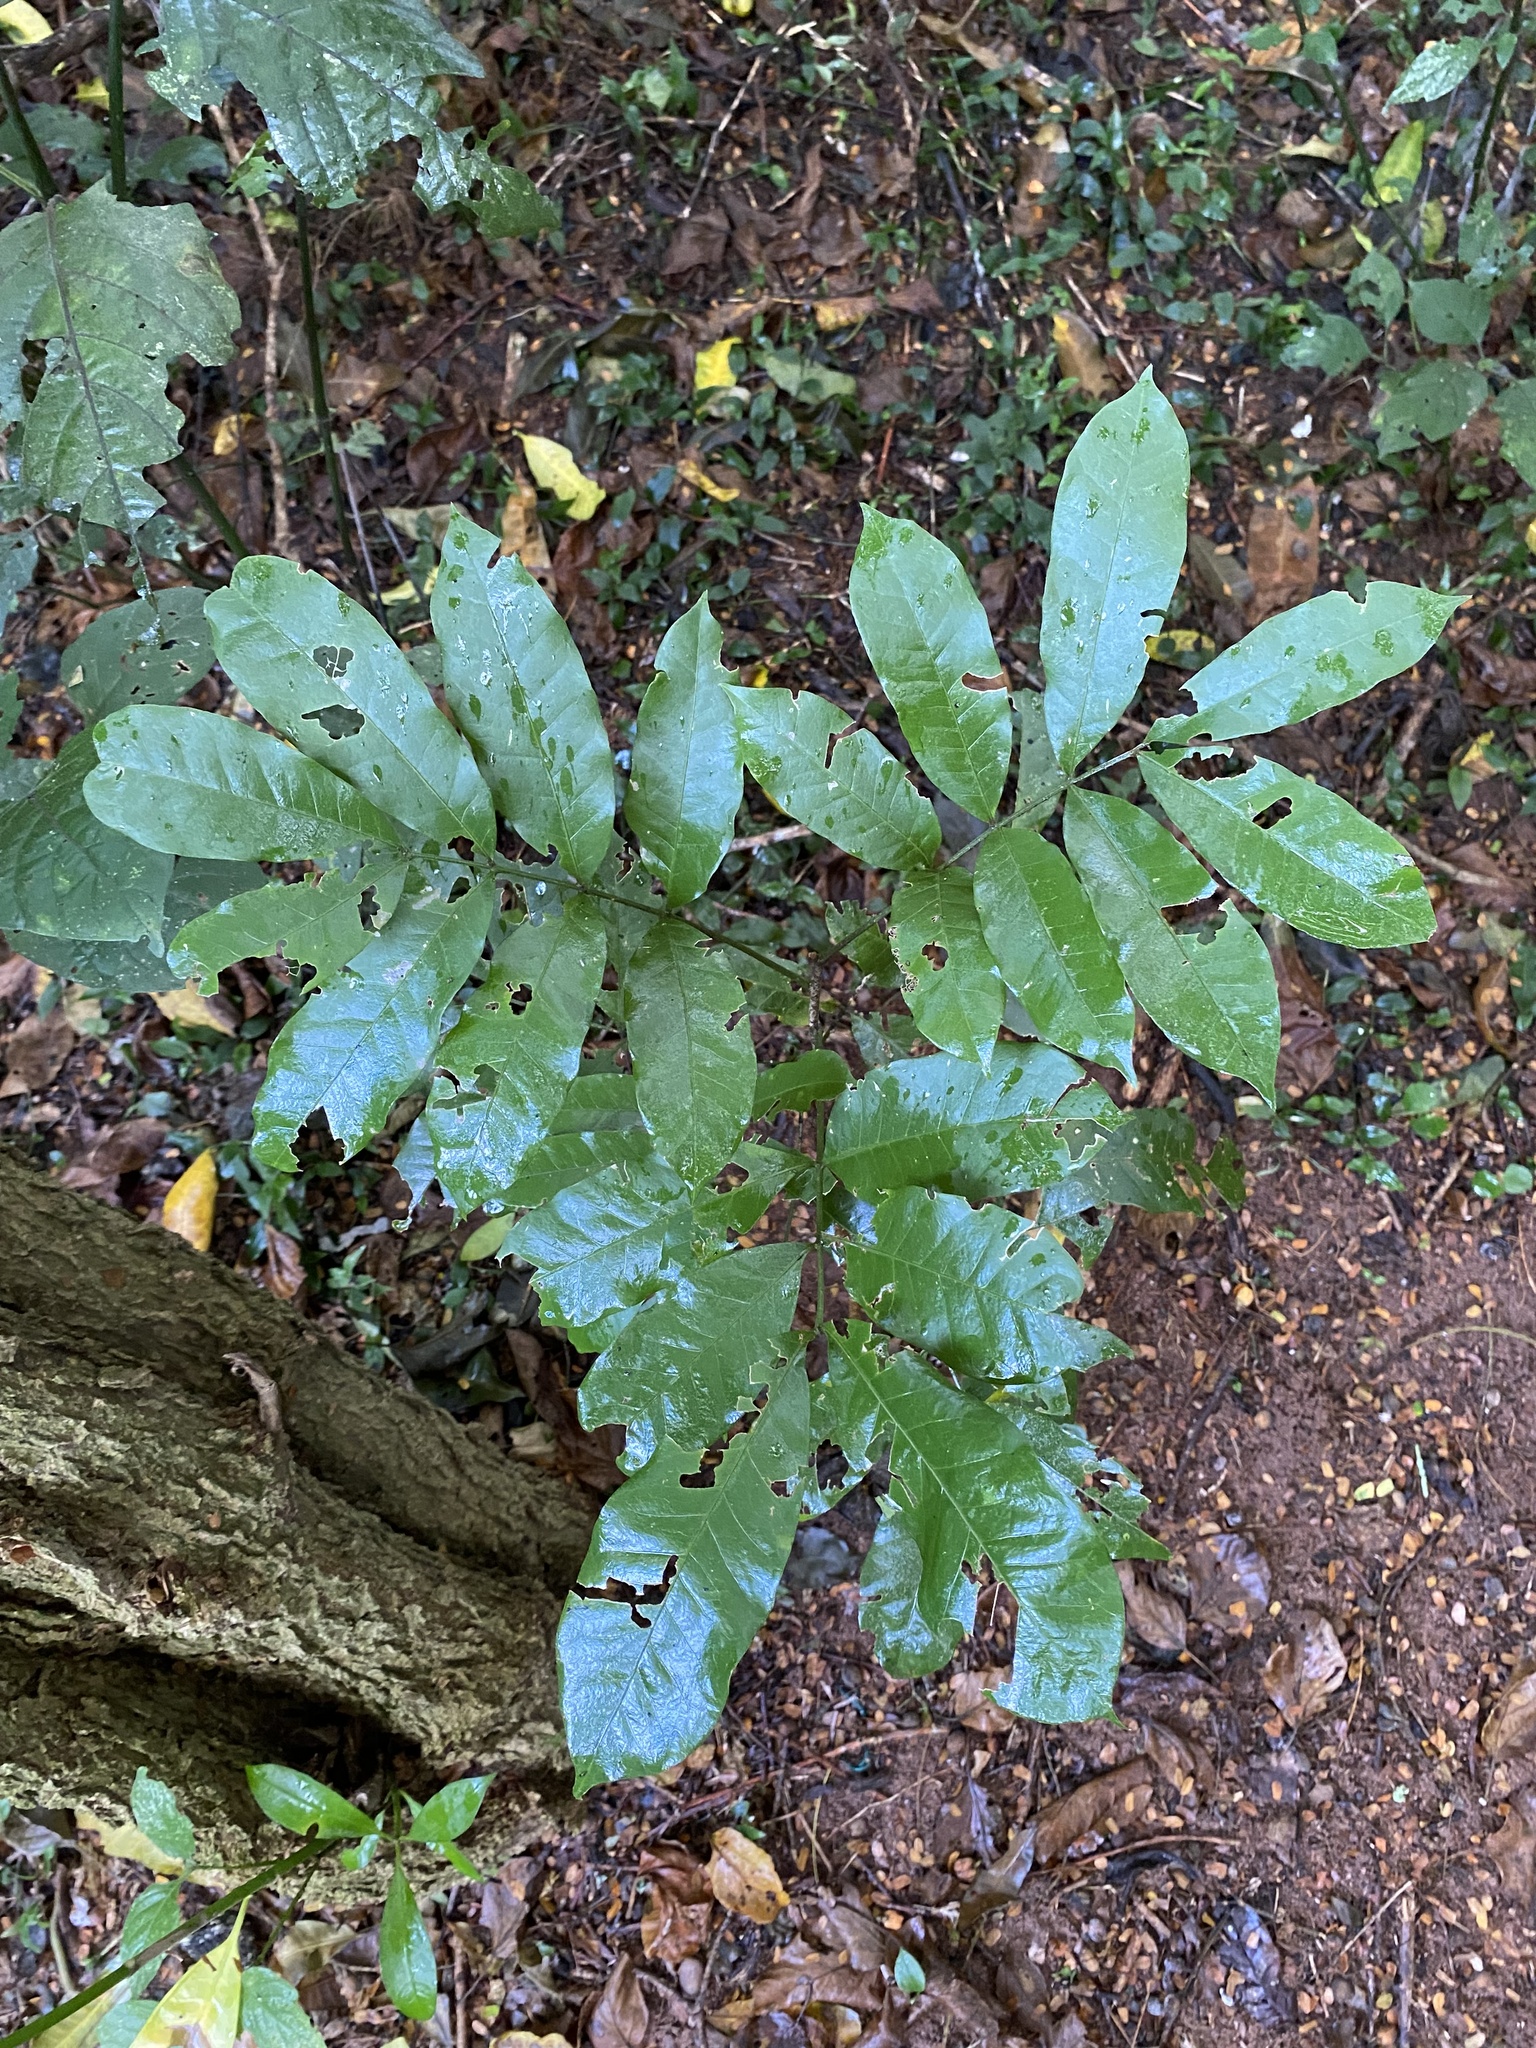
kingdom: Plantae
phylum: Tracheophyta
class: Magnoliopsida
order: Sapindales
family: Sapindaceae
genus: Deinbollia
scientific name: Deinbollia oblongifolia
